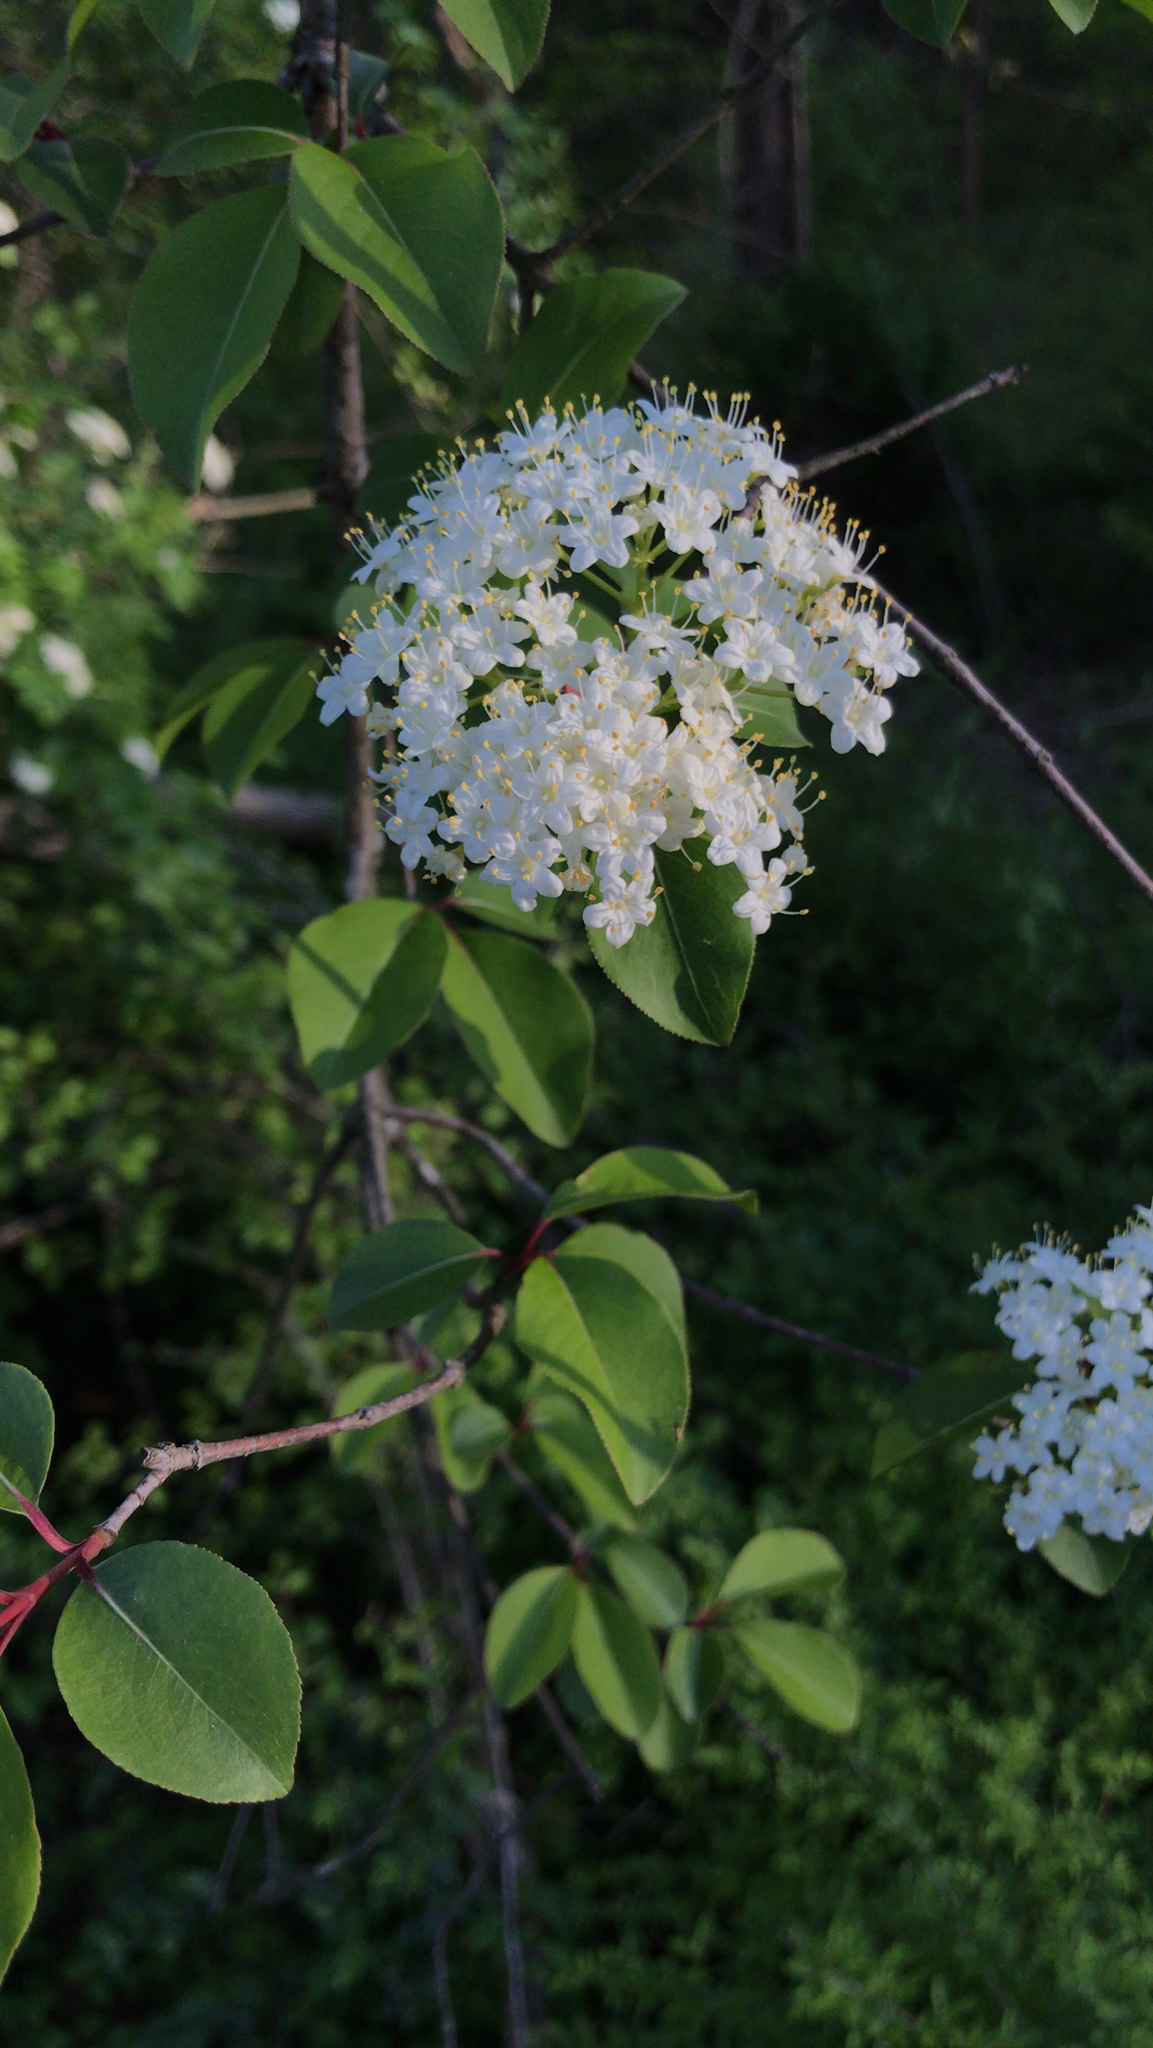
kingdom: Plantae
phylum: Tracheophyta
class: Magnoliopsida
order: Dipsacales
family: Viburnaceae
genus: Viburnum
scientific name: Viburnum prunifolium
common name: Black haw
